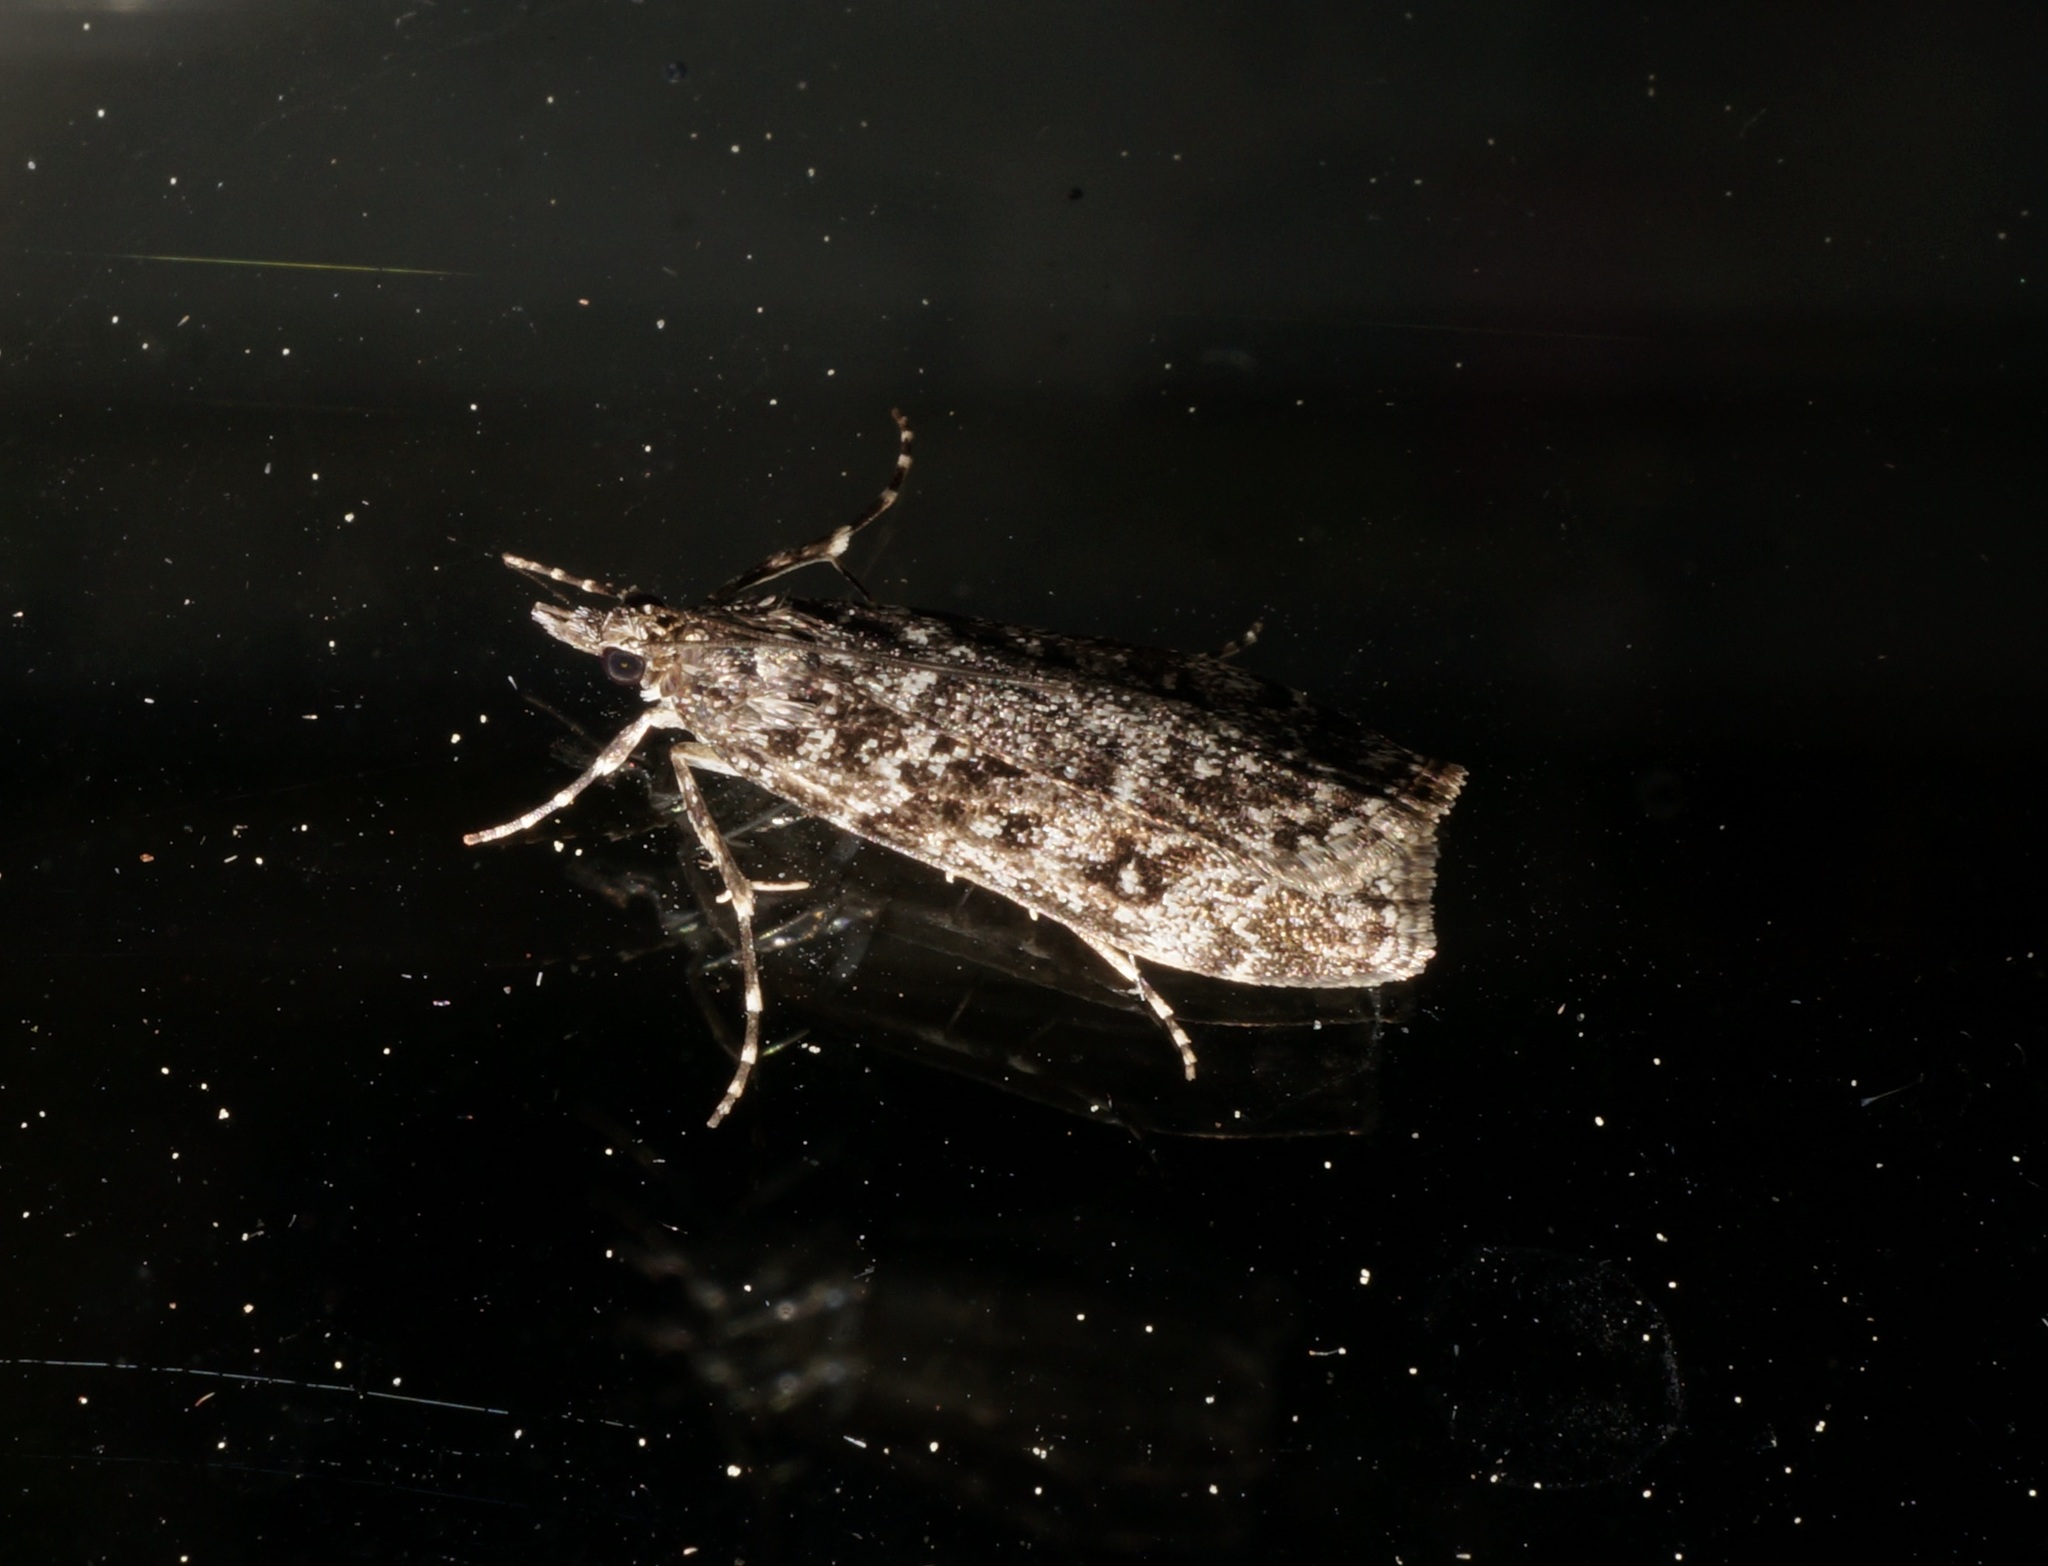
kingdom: Animalia
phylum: Arthropoda
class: Insecta
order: Lepidoptera
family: Crambidae
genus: Eudonia
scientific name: Eudonia philerga
